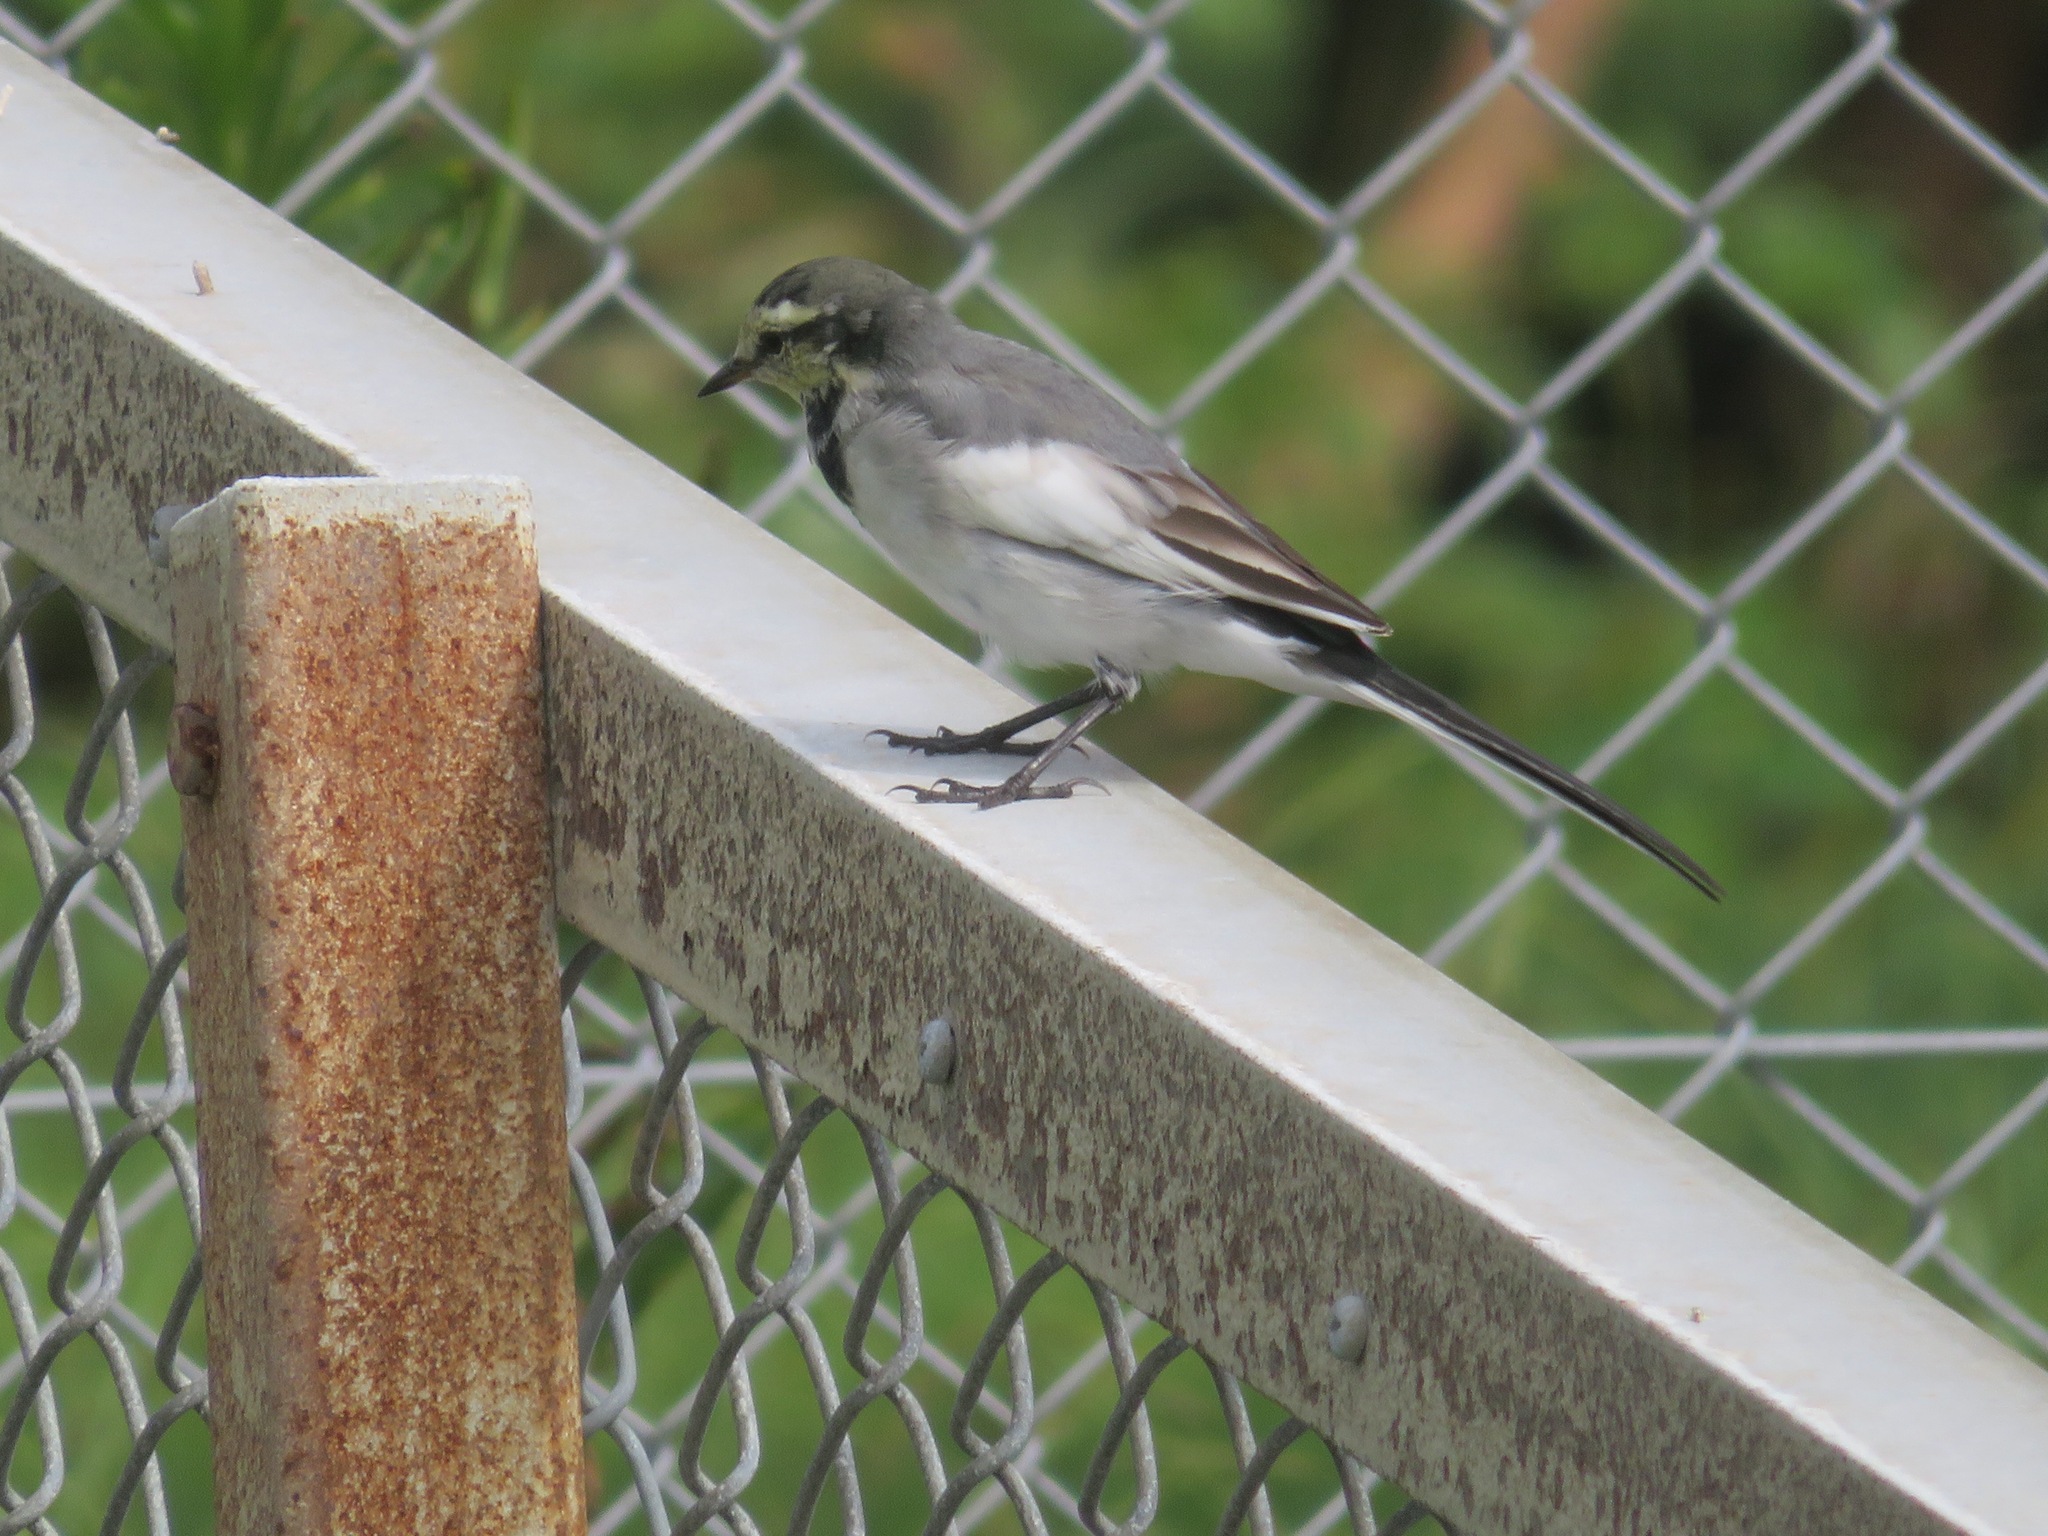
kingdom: Animalia
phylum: Chordata
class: Aves
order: Passeriformes
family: Motacillidae
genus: Motacilla
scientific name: Motacilla alba
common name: White wagtail
